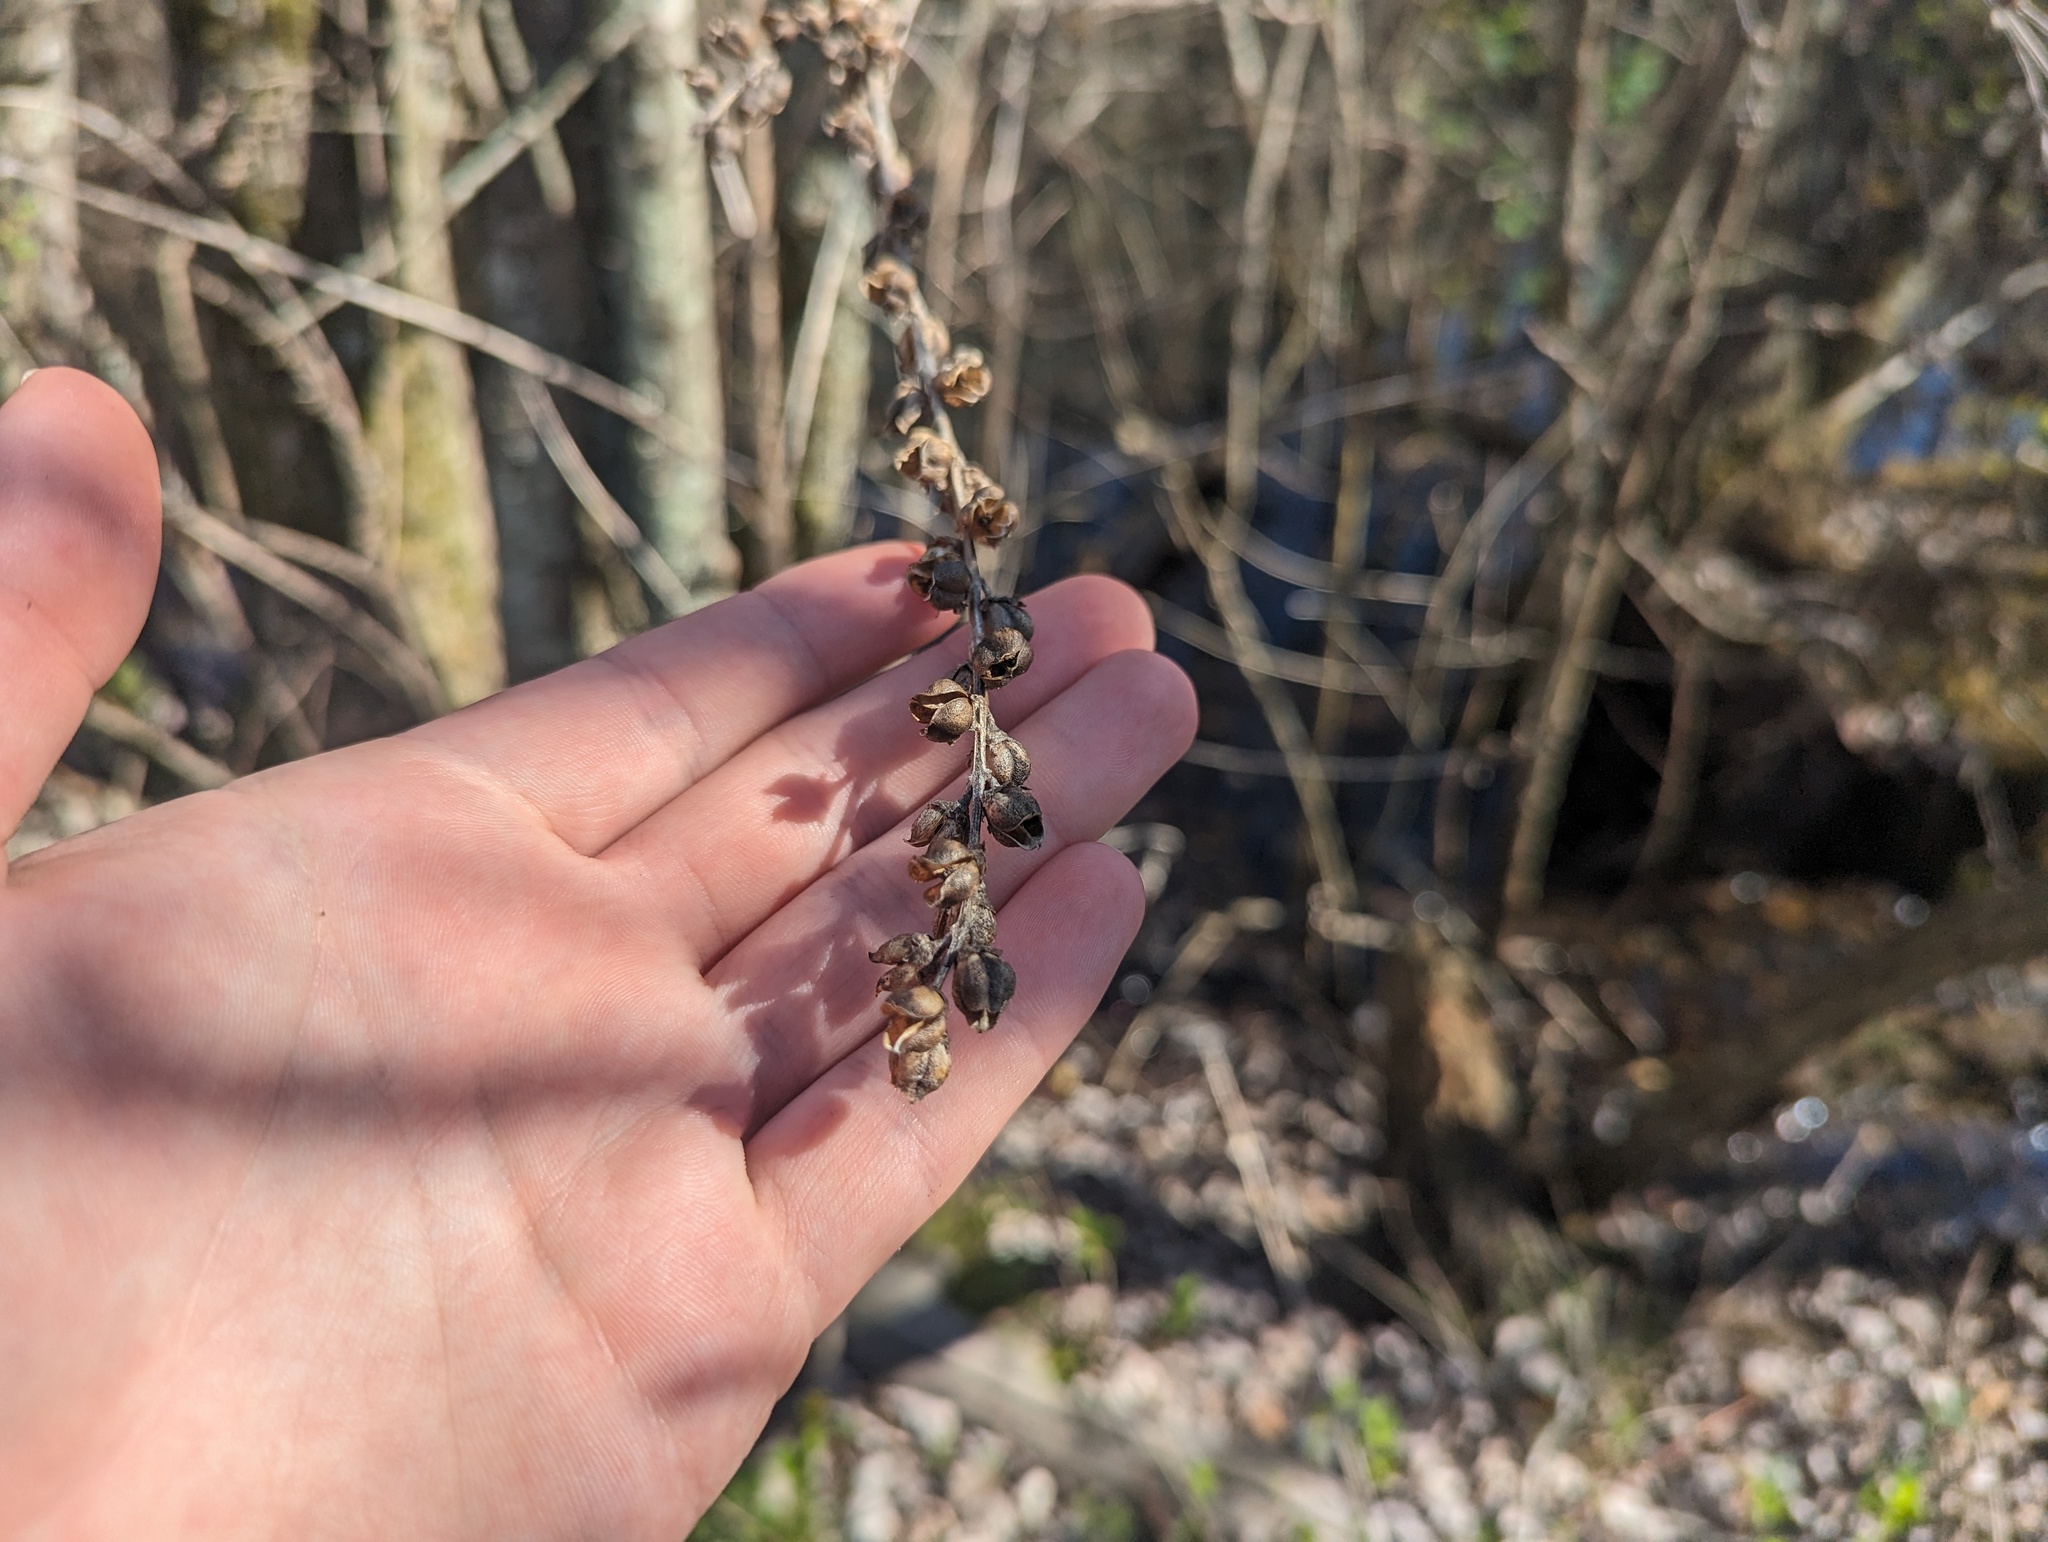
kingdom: Plantae
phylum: Tracheophyta
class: Magnoliopsida
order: Lamiales
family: Orobanchaceae
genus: Dasistoma
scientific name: Dasistoma macrophyllum
